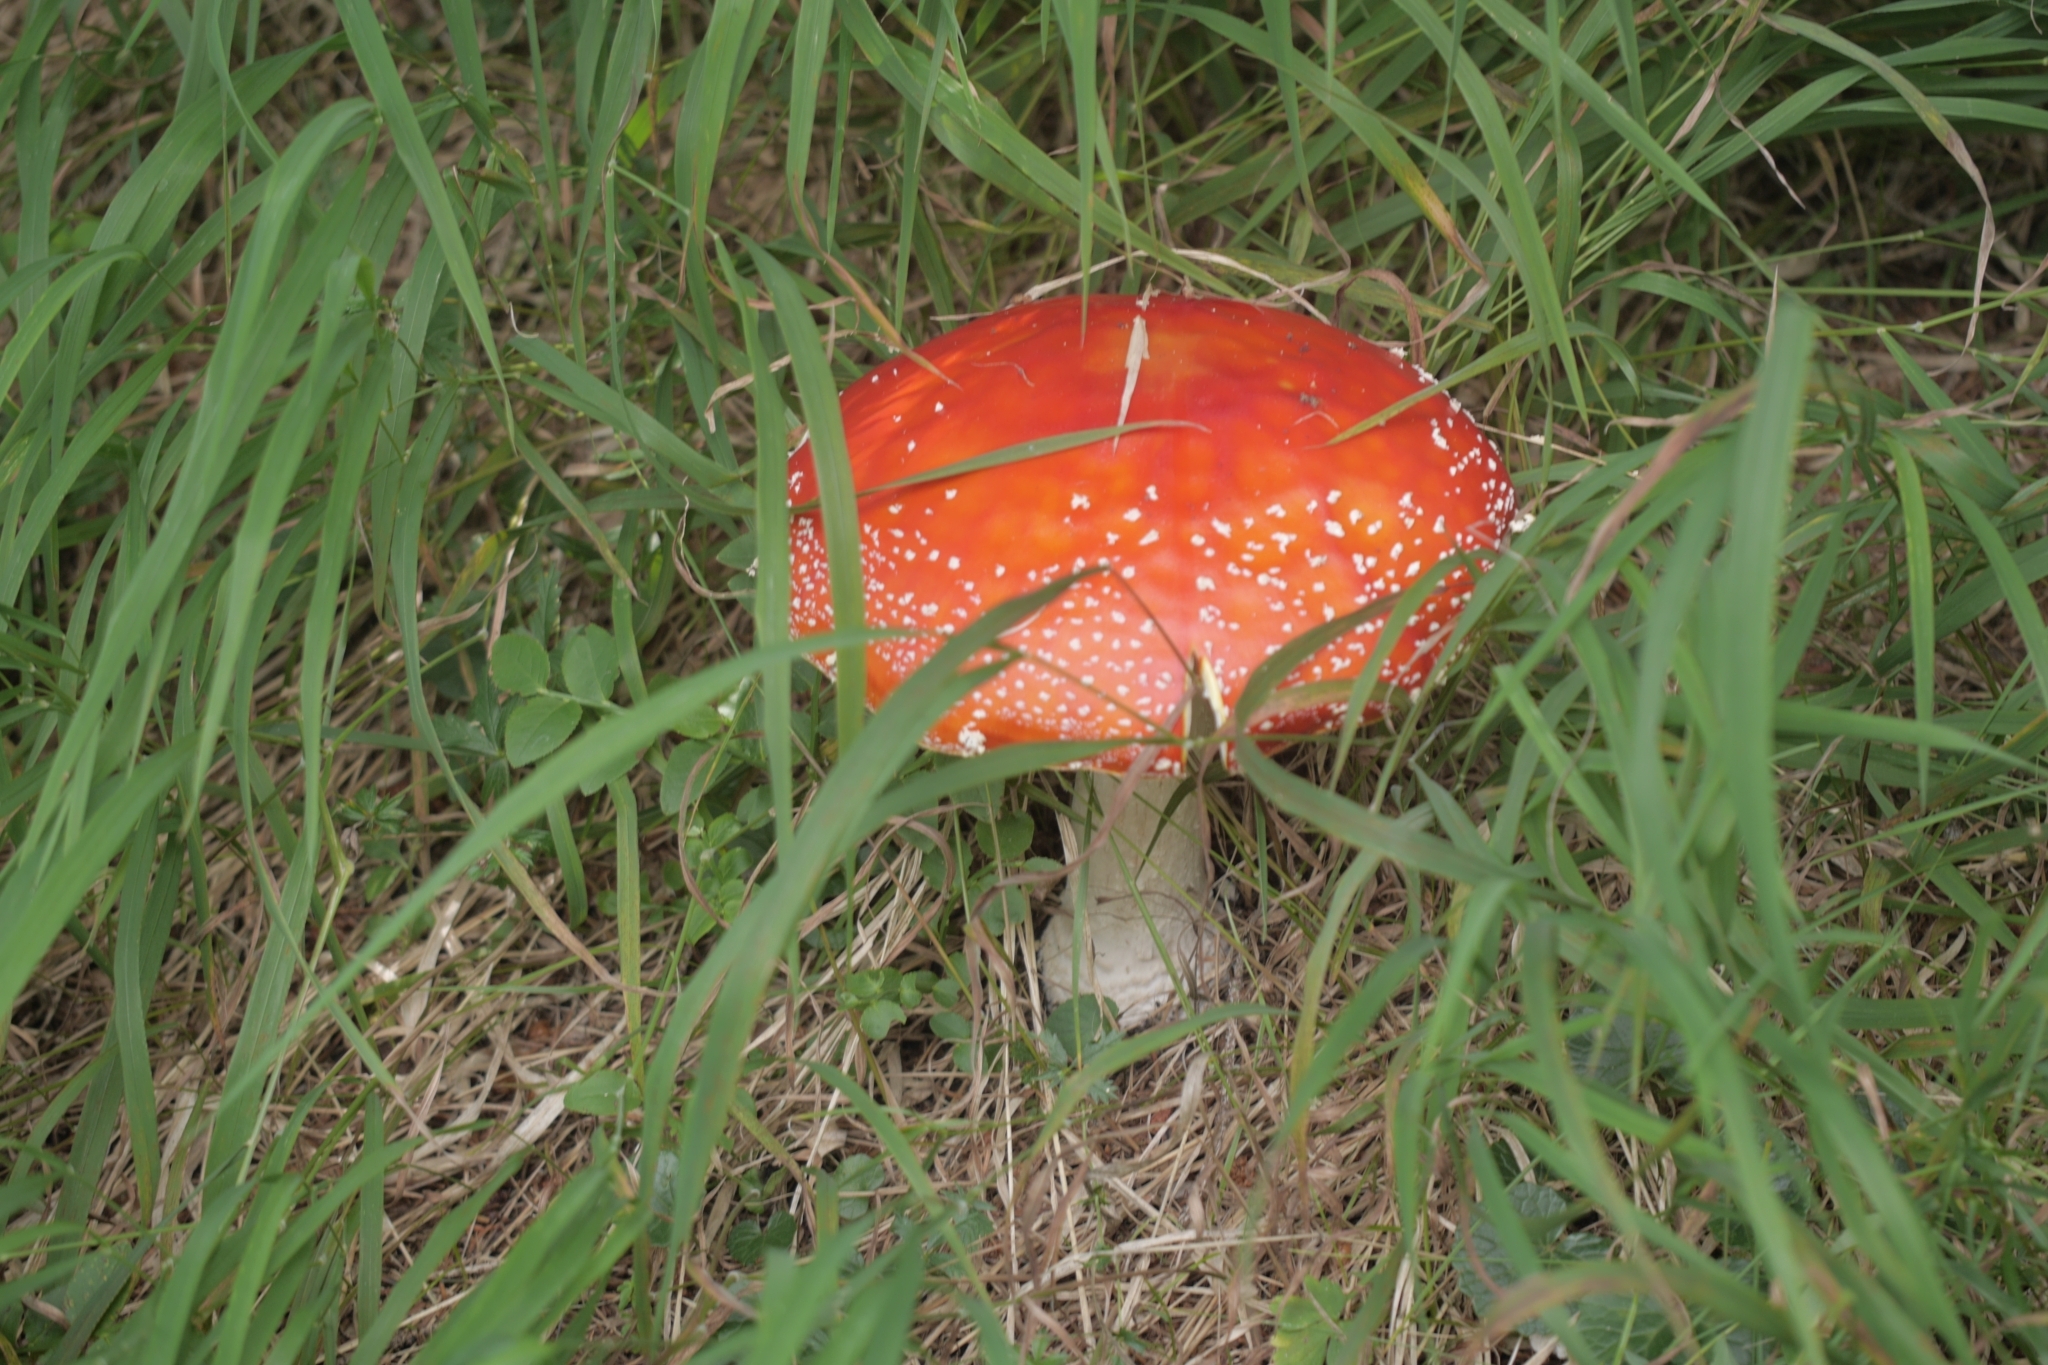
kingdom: Fungi
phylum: Basidiomycota
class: Agaricomycetes
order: Agaricales
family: Amanitaceae
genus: Amanita
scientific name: Amanita muscaria
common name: Fly agaric
